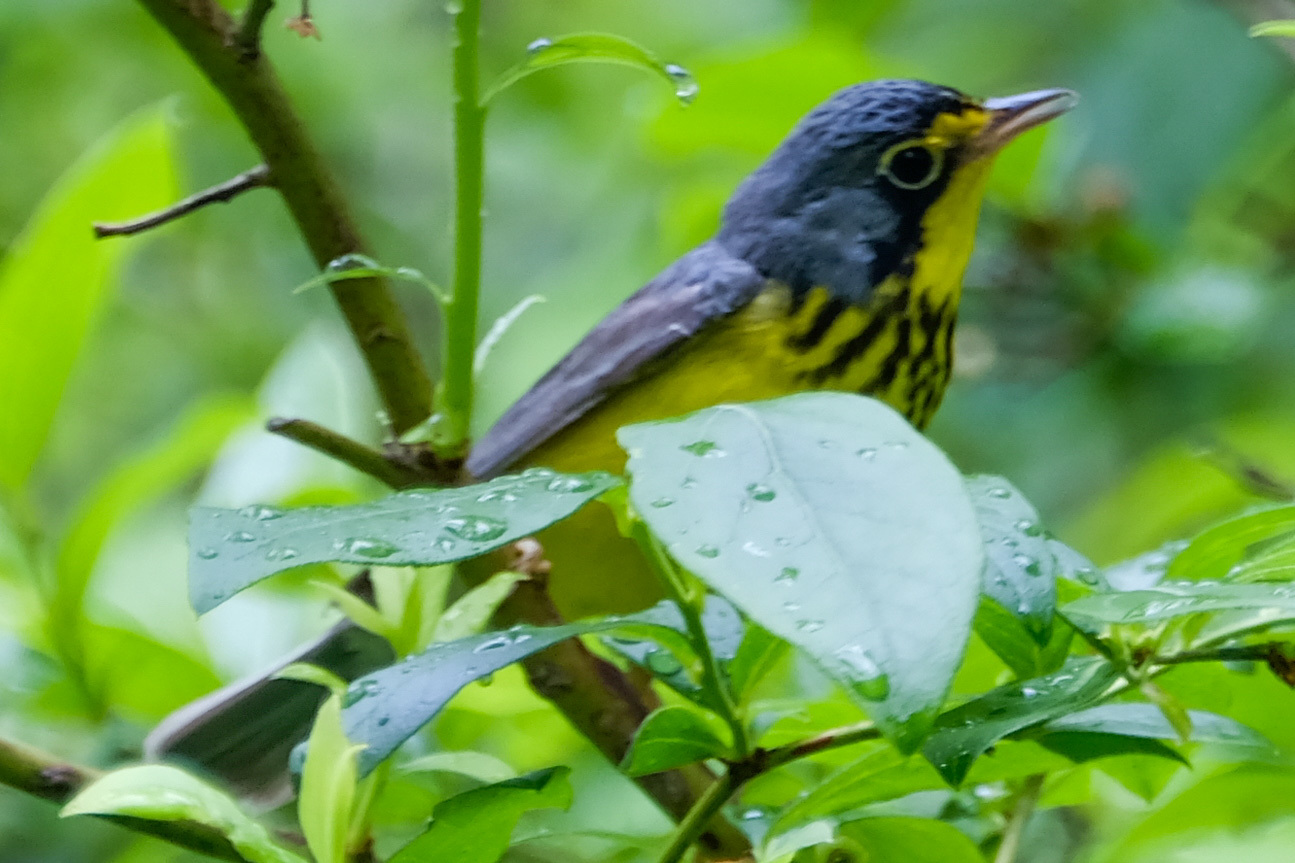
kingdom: Animalia
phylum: Chordata
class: Aves
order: Passeriformes
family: Parulidae
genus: Cardellina
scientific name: Cardellina canadensis
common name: Canada warbler
